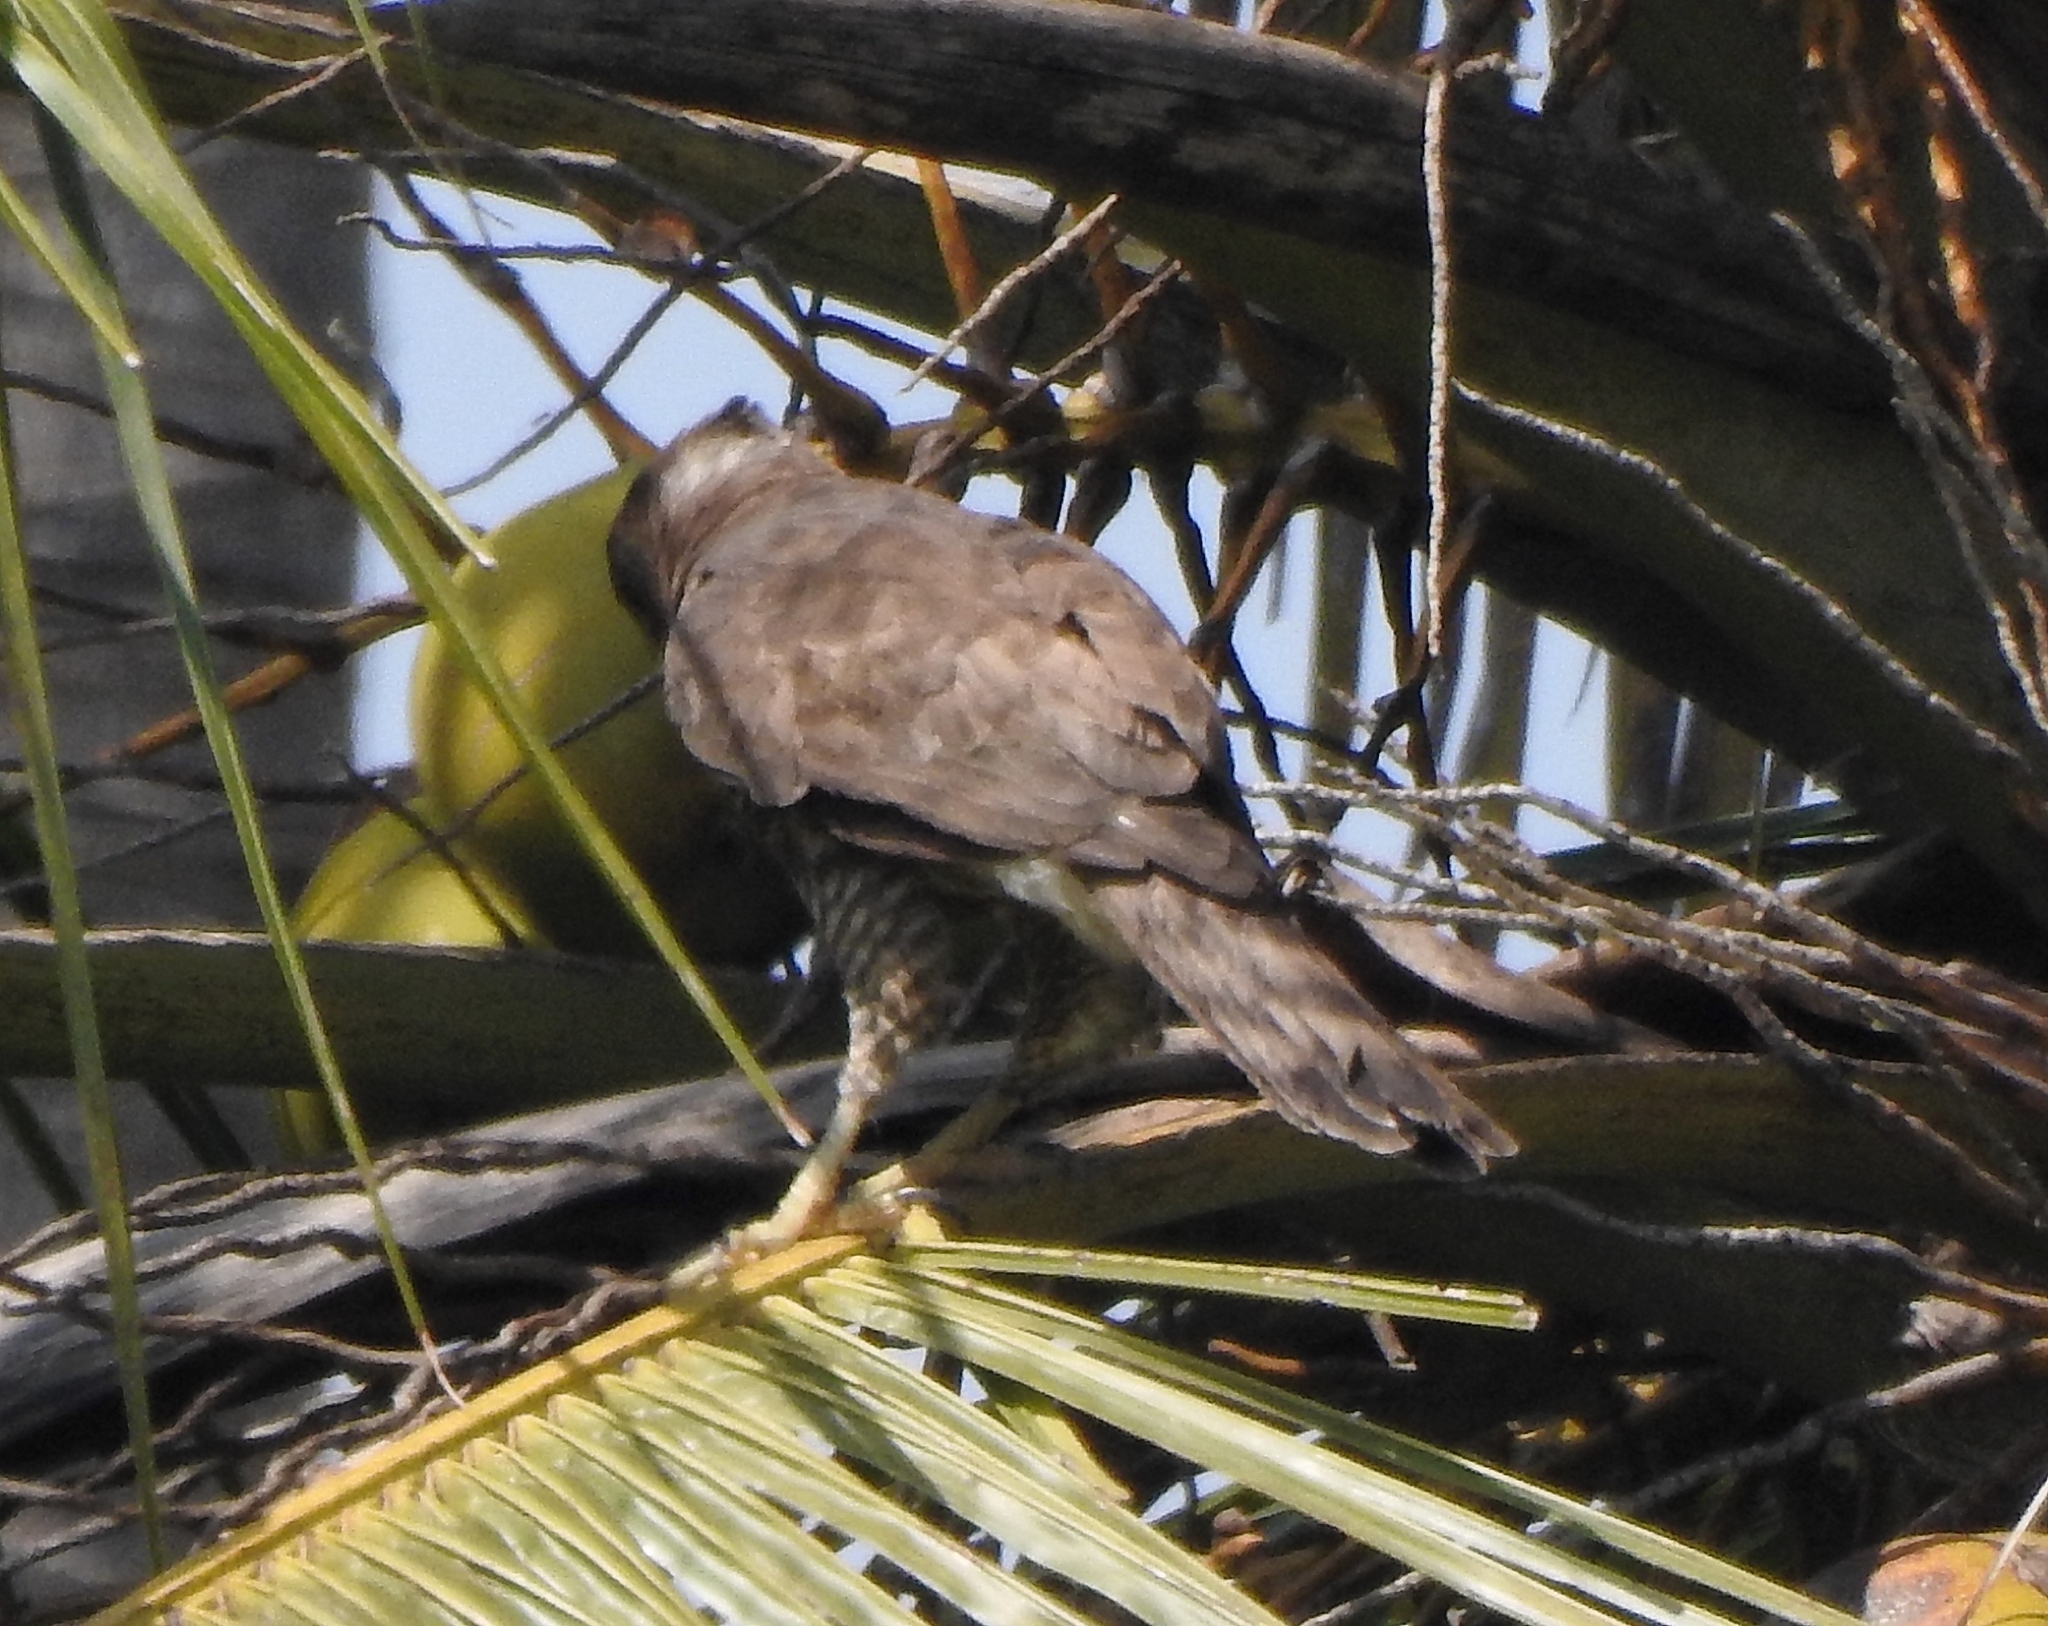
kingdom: Animalia
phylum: Chordata
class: Aves
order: Accipitriformes
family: Accipitridae
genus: Accipiter
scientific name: Accipiter trivirgatus
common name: Crested goshawk
